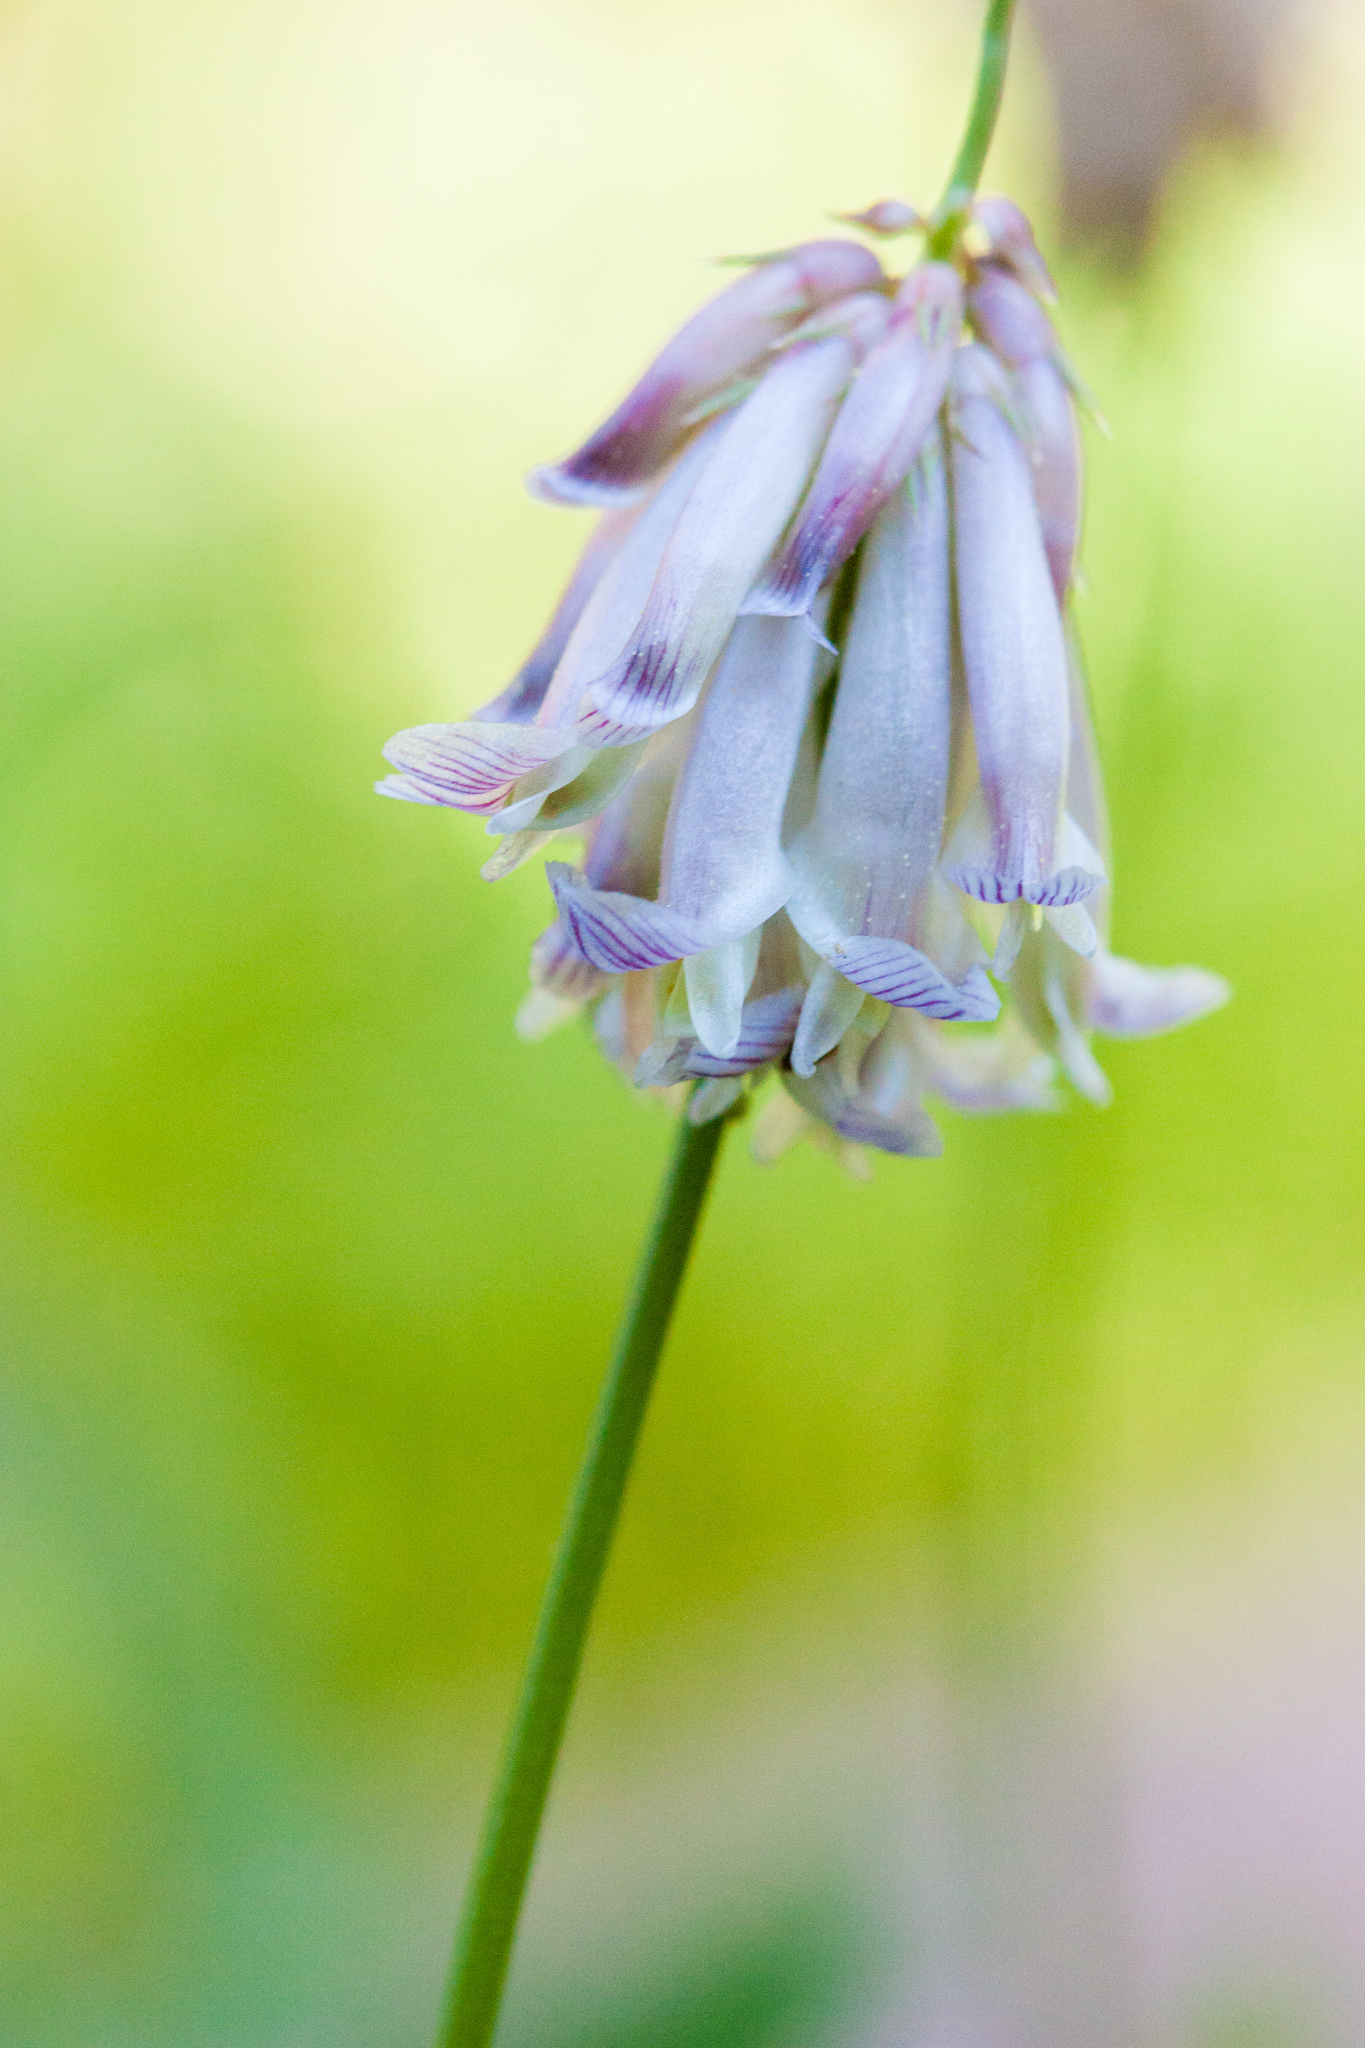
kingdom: Plantae
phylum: Tracheophyta
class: Magnoliopsida
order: Fabales
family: Fabaceae
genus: Trifolium
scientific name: Trifolium productum
